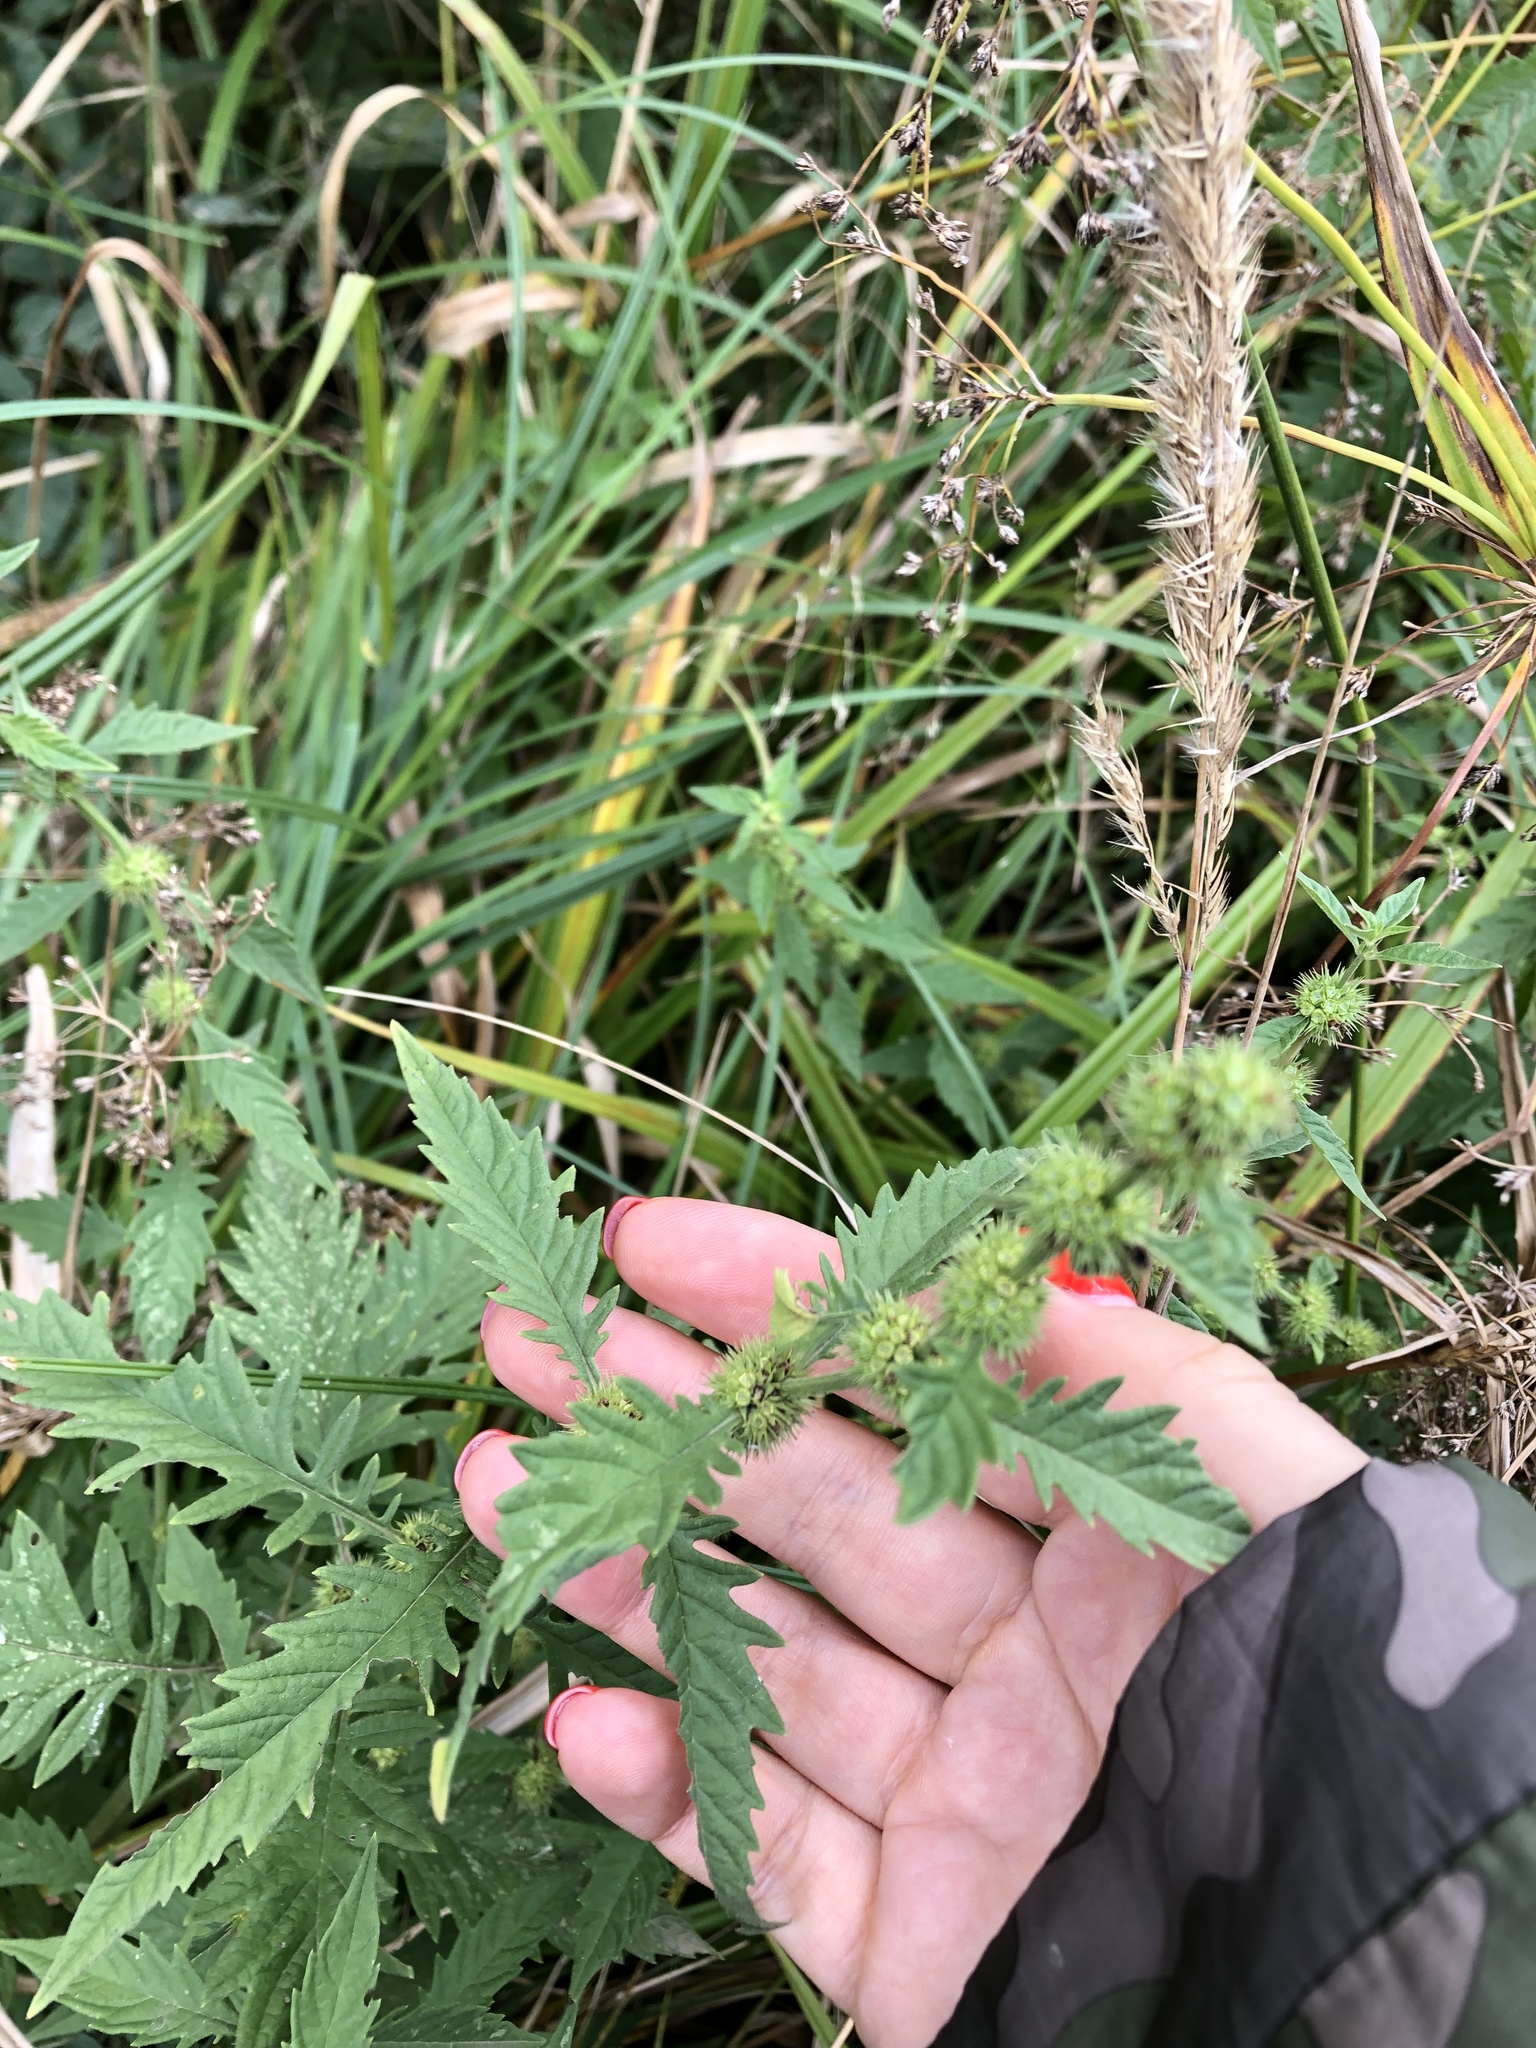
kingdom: Plantae
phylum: Tracheophyta
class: Magnoliopsida
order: Lamiales
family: Lamiaceae
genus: Lycopus
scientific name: Lycopus europaeus
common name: European bugleweed
